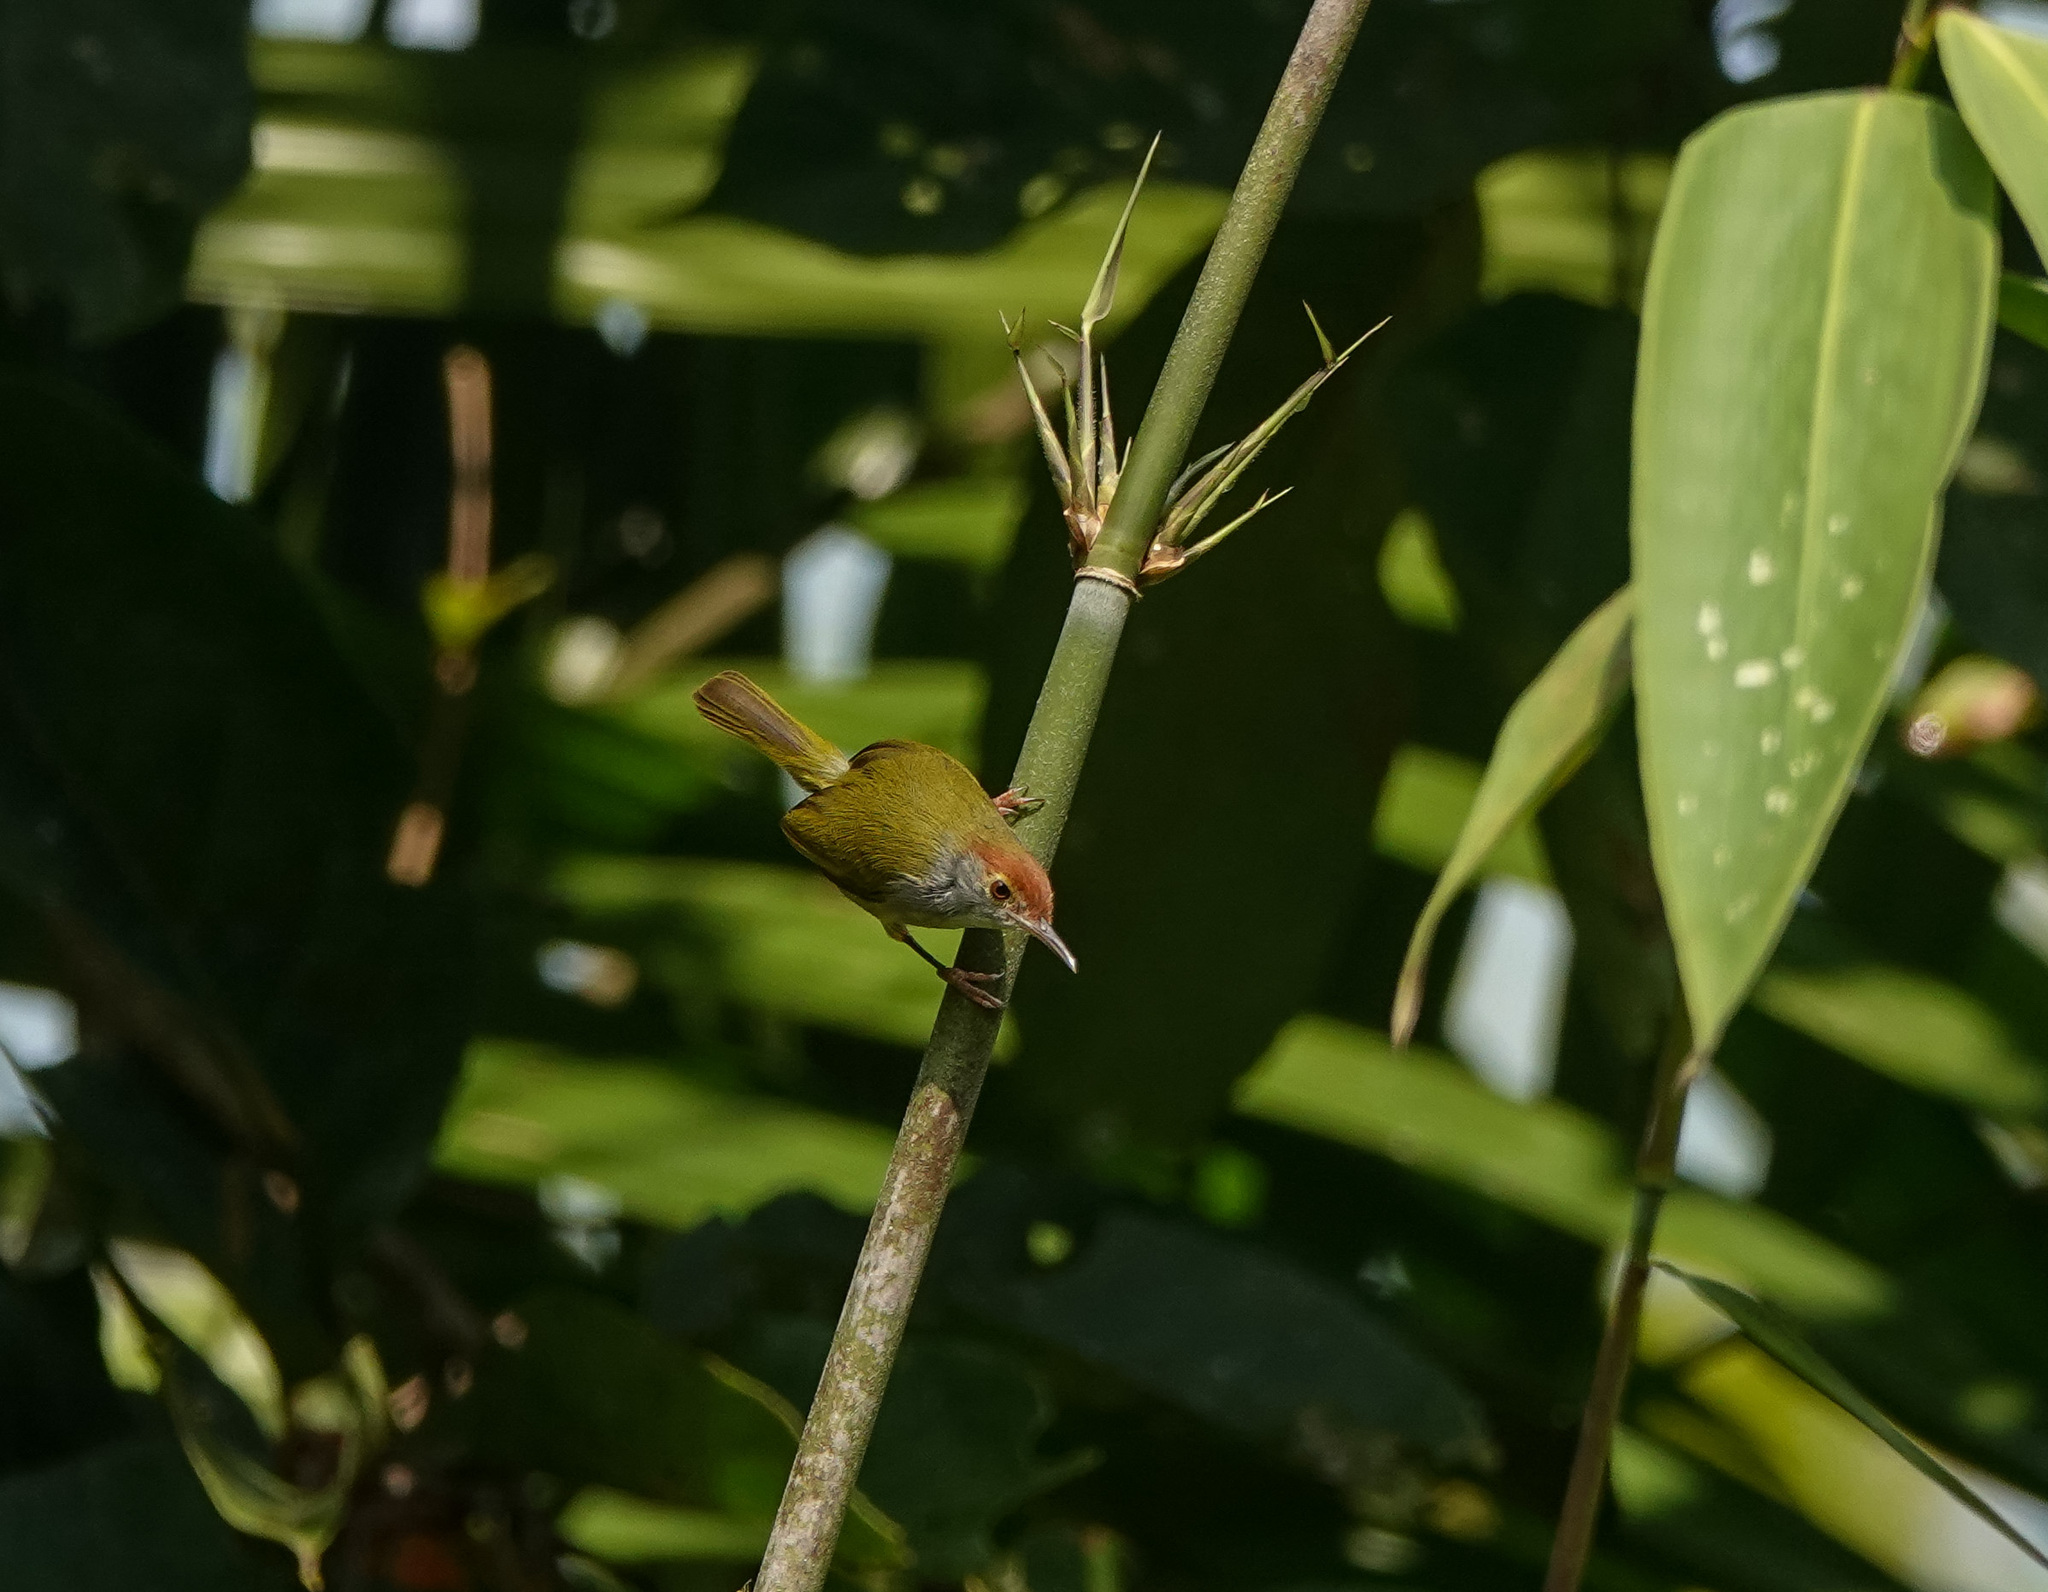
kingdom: Animalia
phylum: Chordata
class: Aves
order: Passeriformes
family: Cisticolidae
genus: Orthotomus
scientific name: Orthotomus atrogularis
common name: Dark-necked tailorbird
